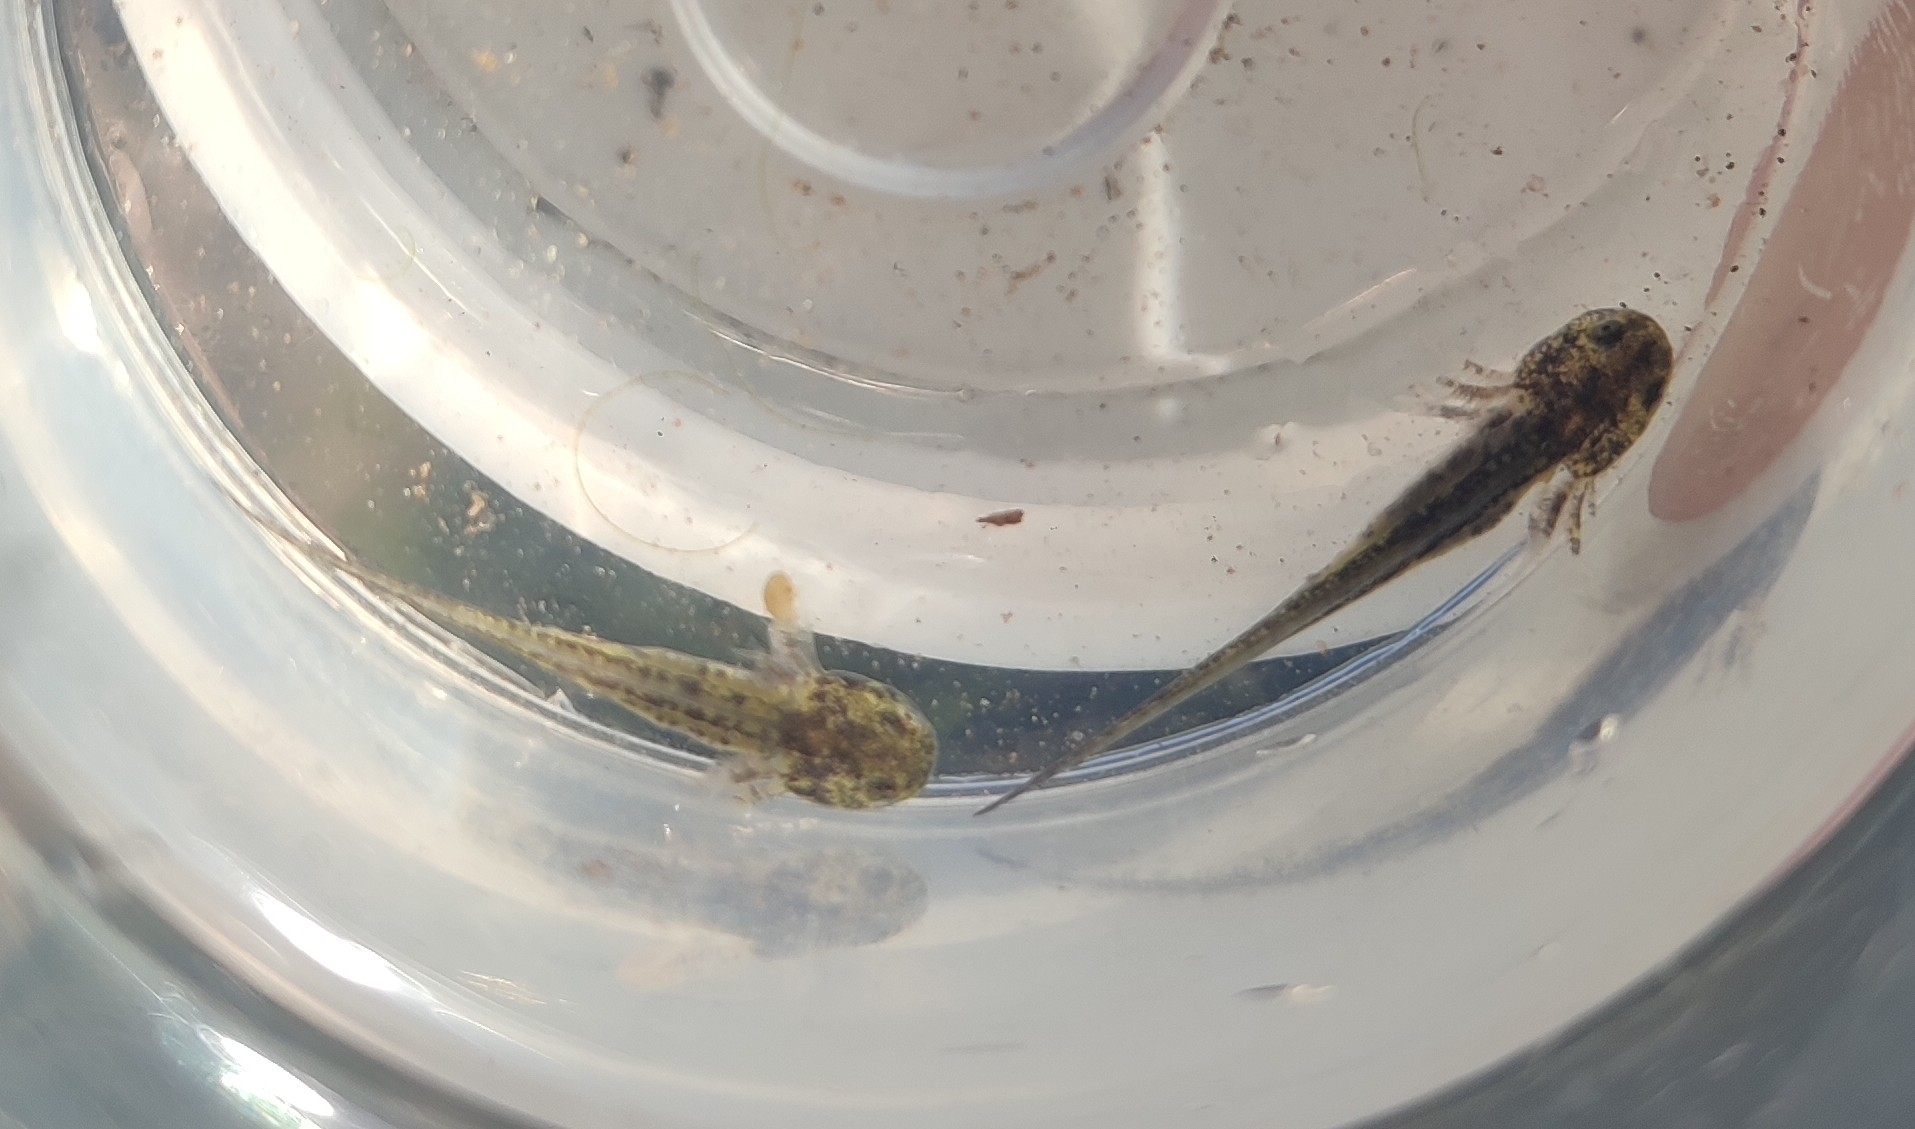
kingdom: Animalia
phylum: Chordata
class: Amphibia
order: Caudata
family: Salamandridae
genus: Pleurodeles
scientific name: Pleurodeles waltl
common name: Iberian ribbed newt
